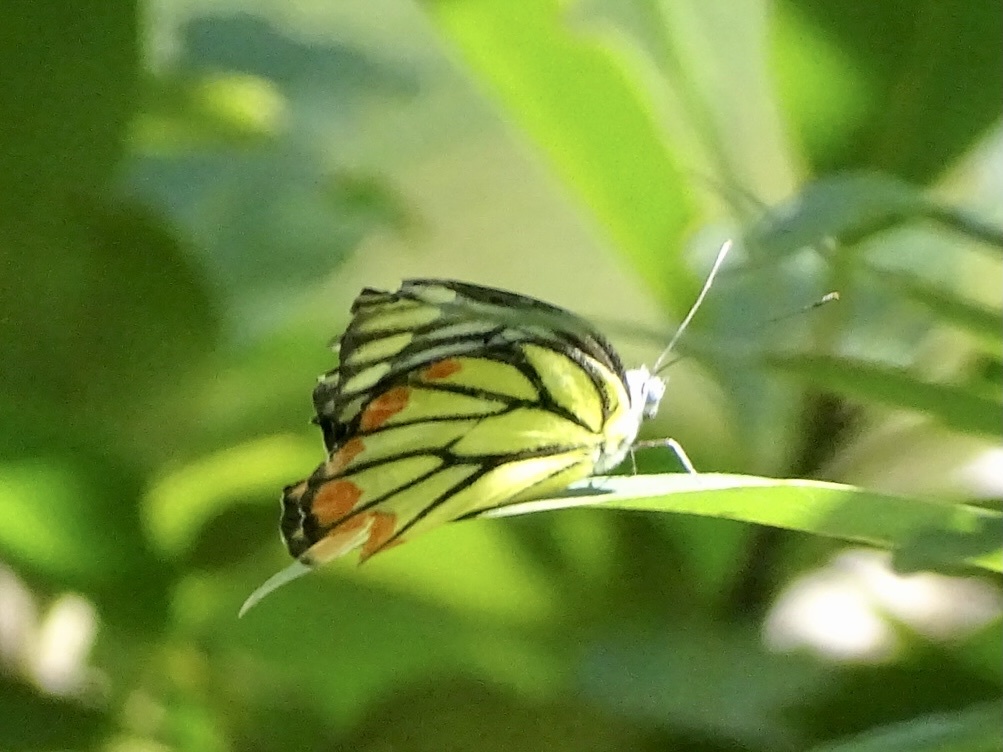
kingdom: Animalia
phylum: Arthropoda
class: Insecta
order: Lepidoptera
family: Pieridae
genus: Delias
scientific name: Delias hyparete
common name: Painted jezebel
